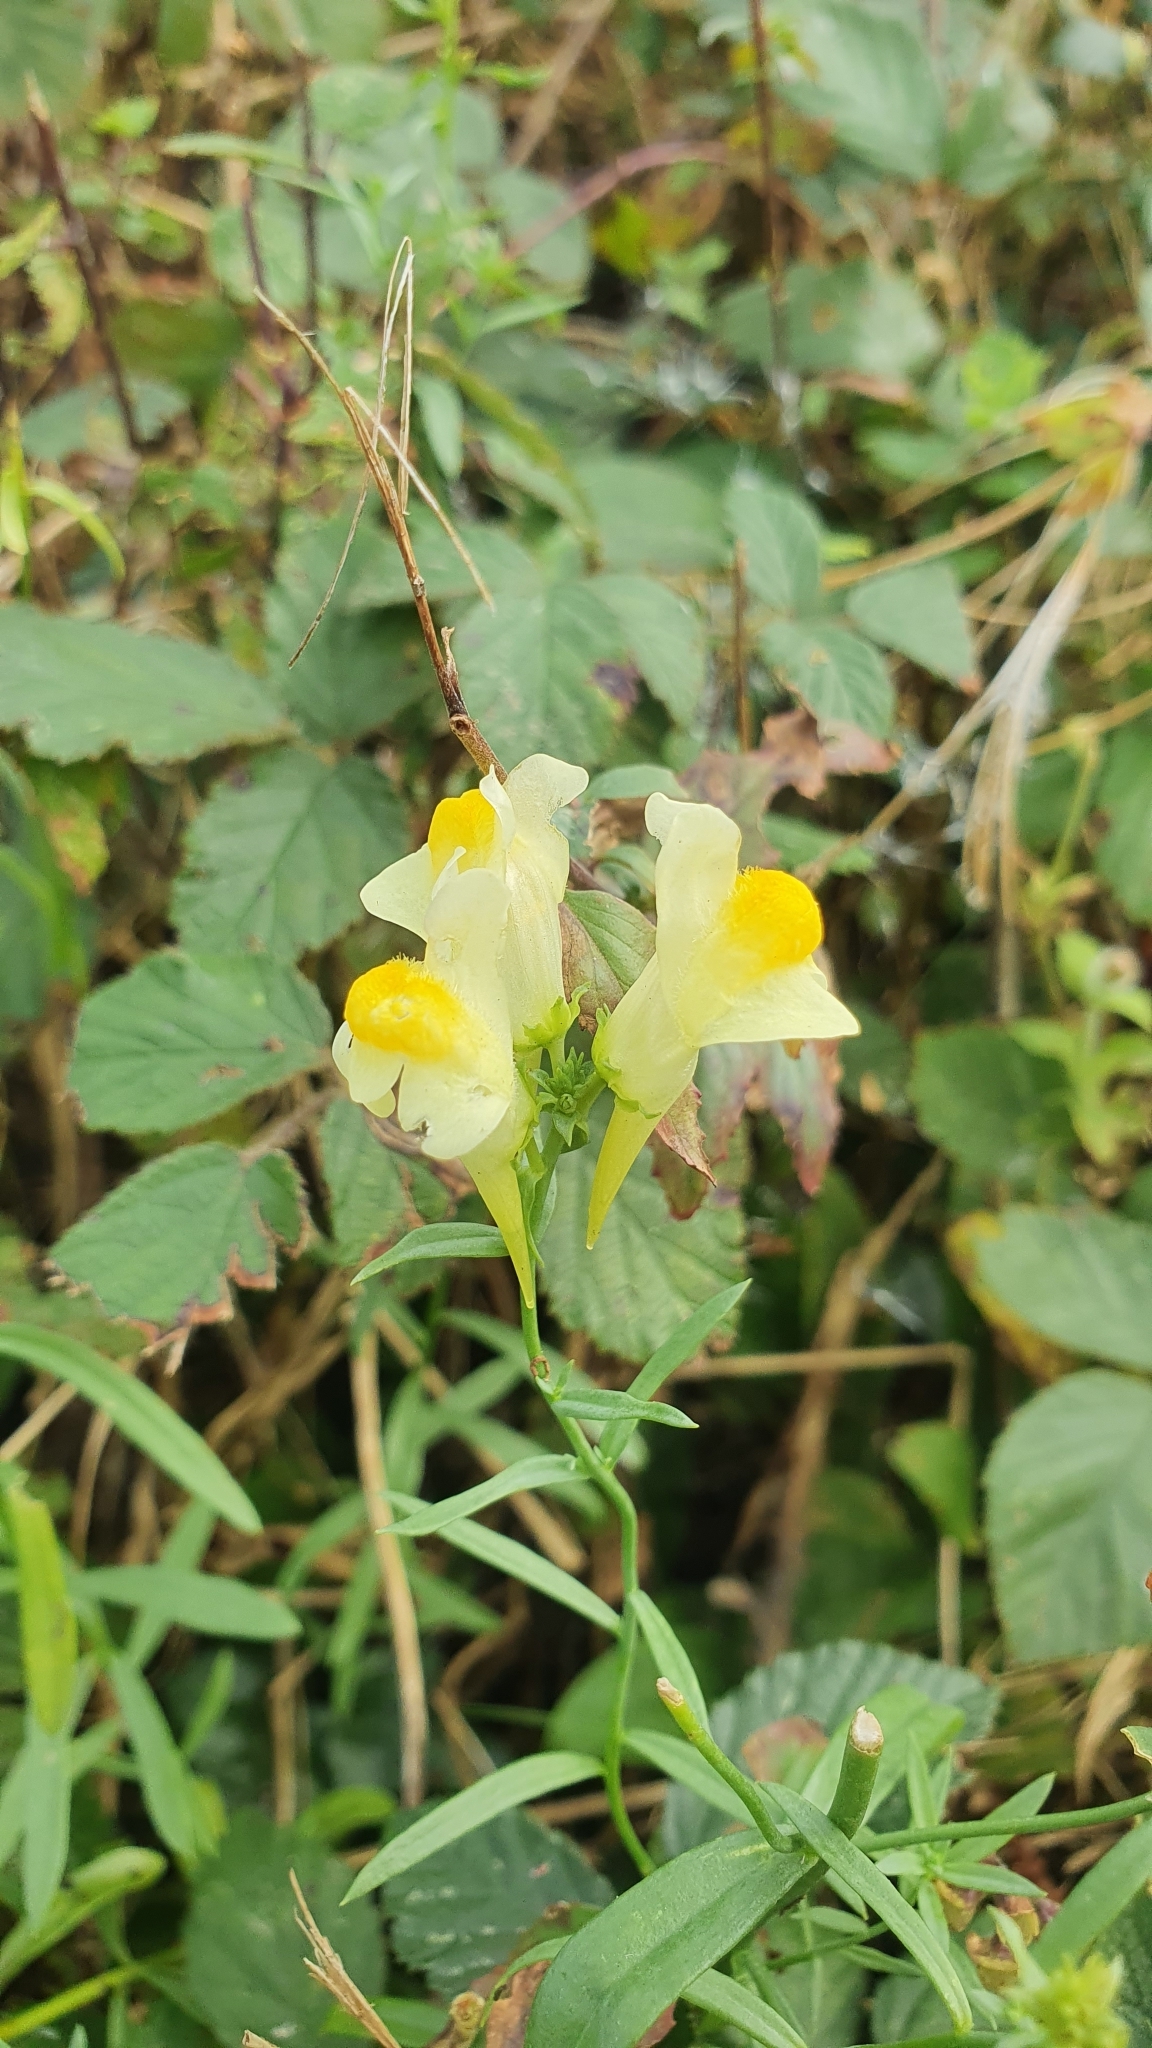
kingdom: Plantae
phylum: Tracheophyta
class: Magnoliopsida
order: Lamiales
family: Plantaginaceae
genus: Linaria
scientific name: Linaria vulgaris
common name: Butter and eggs
